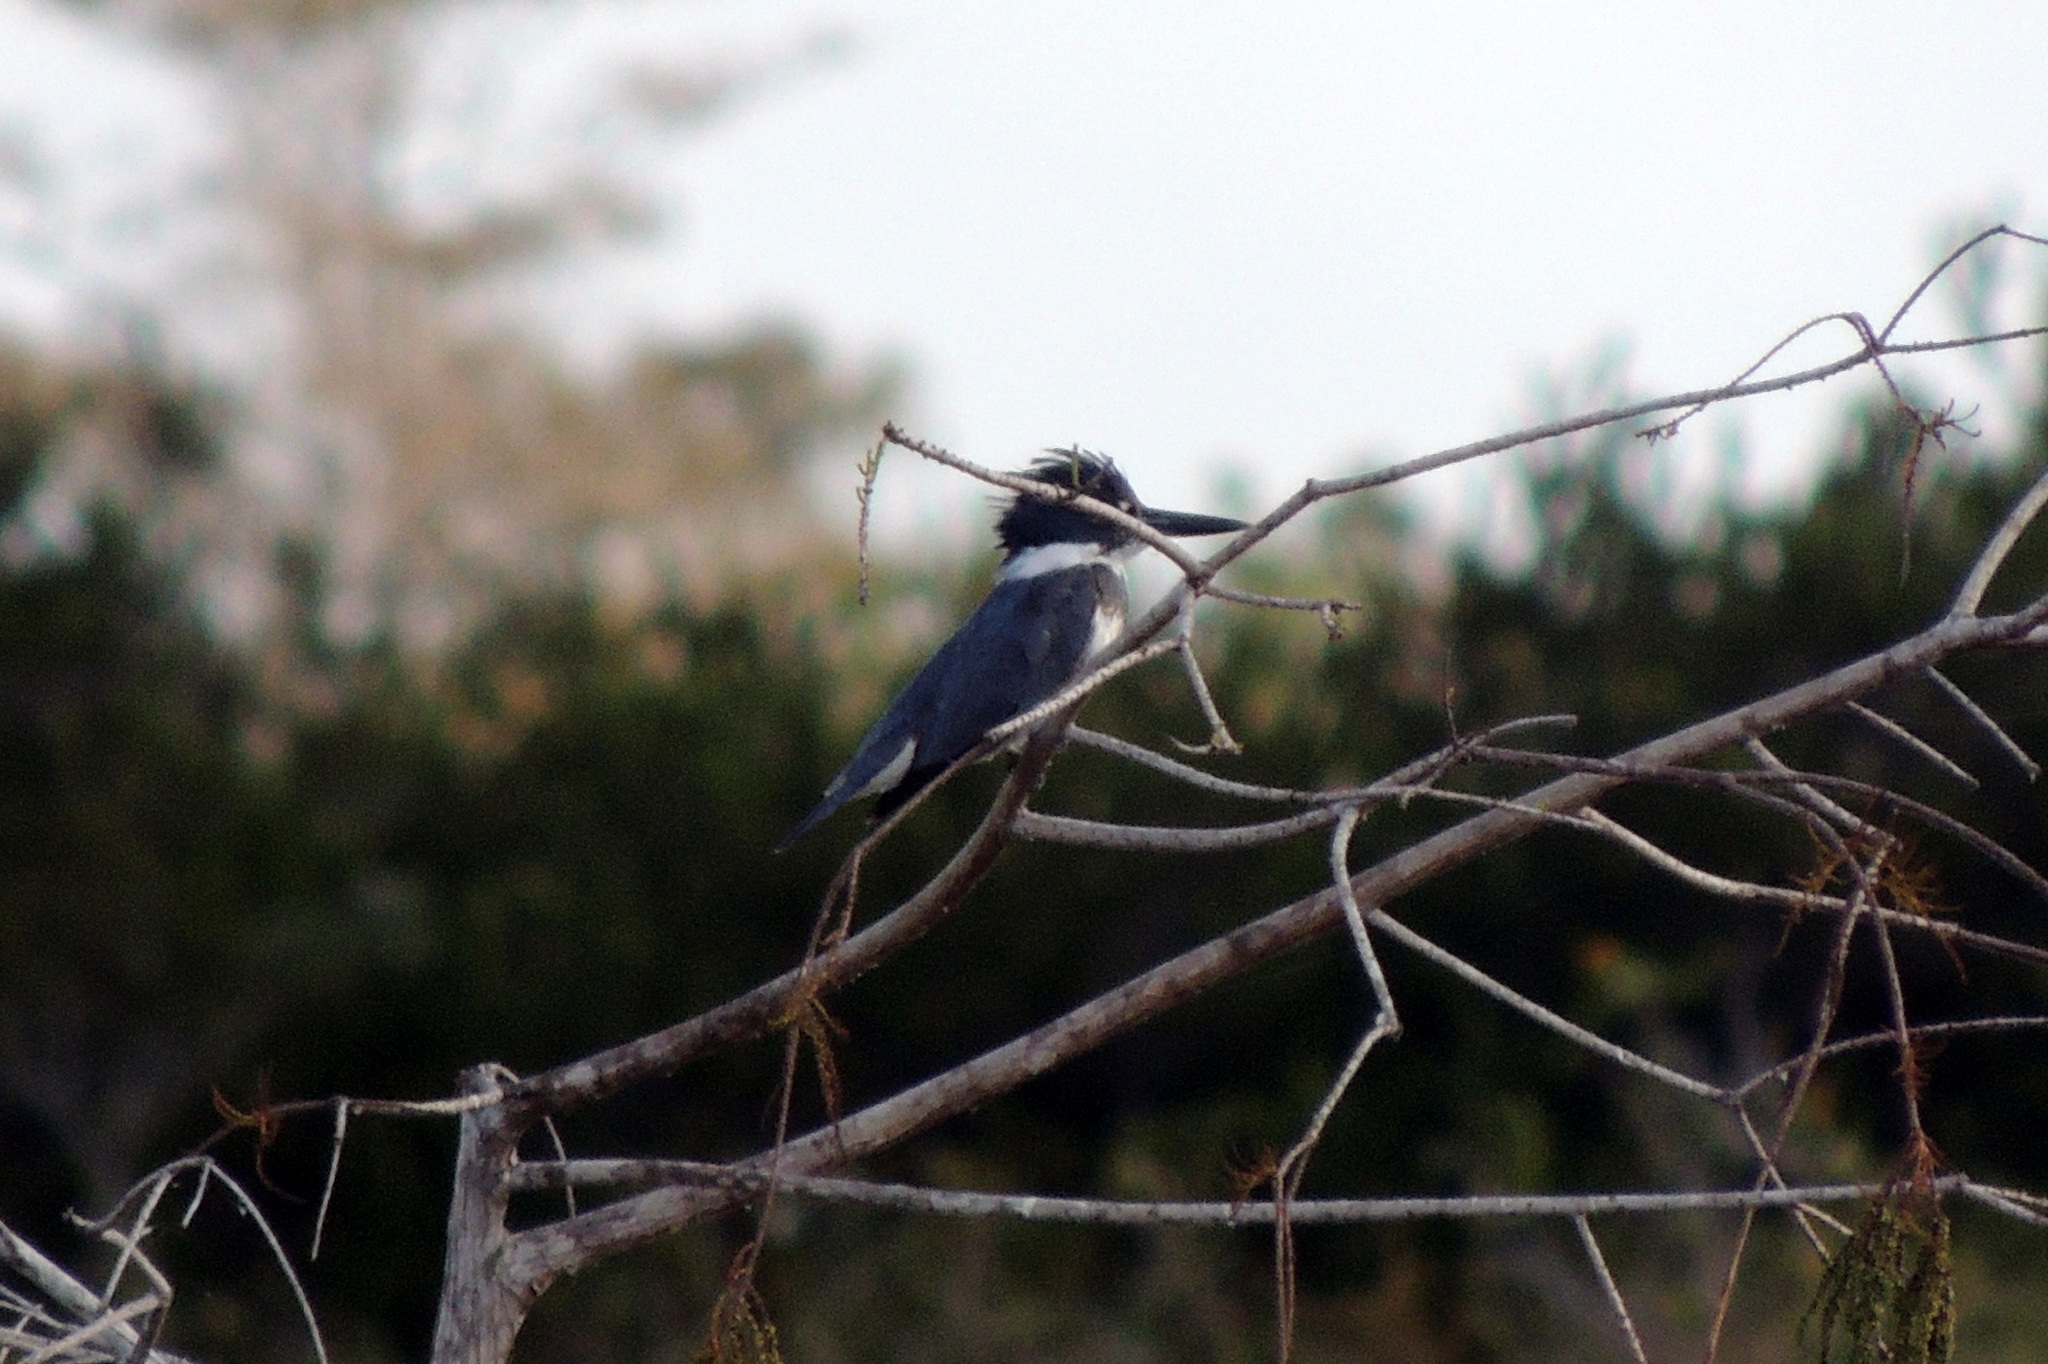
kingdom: Animalia
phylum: Chordata
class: Aves
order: Coraciiformes
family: Alcedinidae
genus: Megaceryle
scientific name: Megaceryle alcyon
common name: Belted kingfisher
